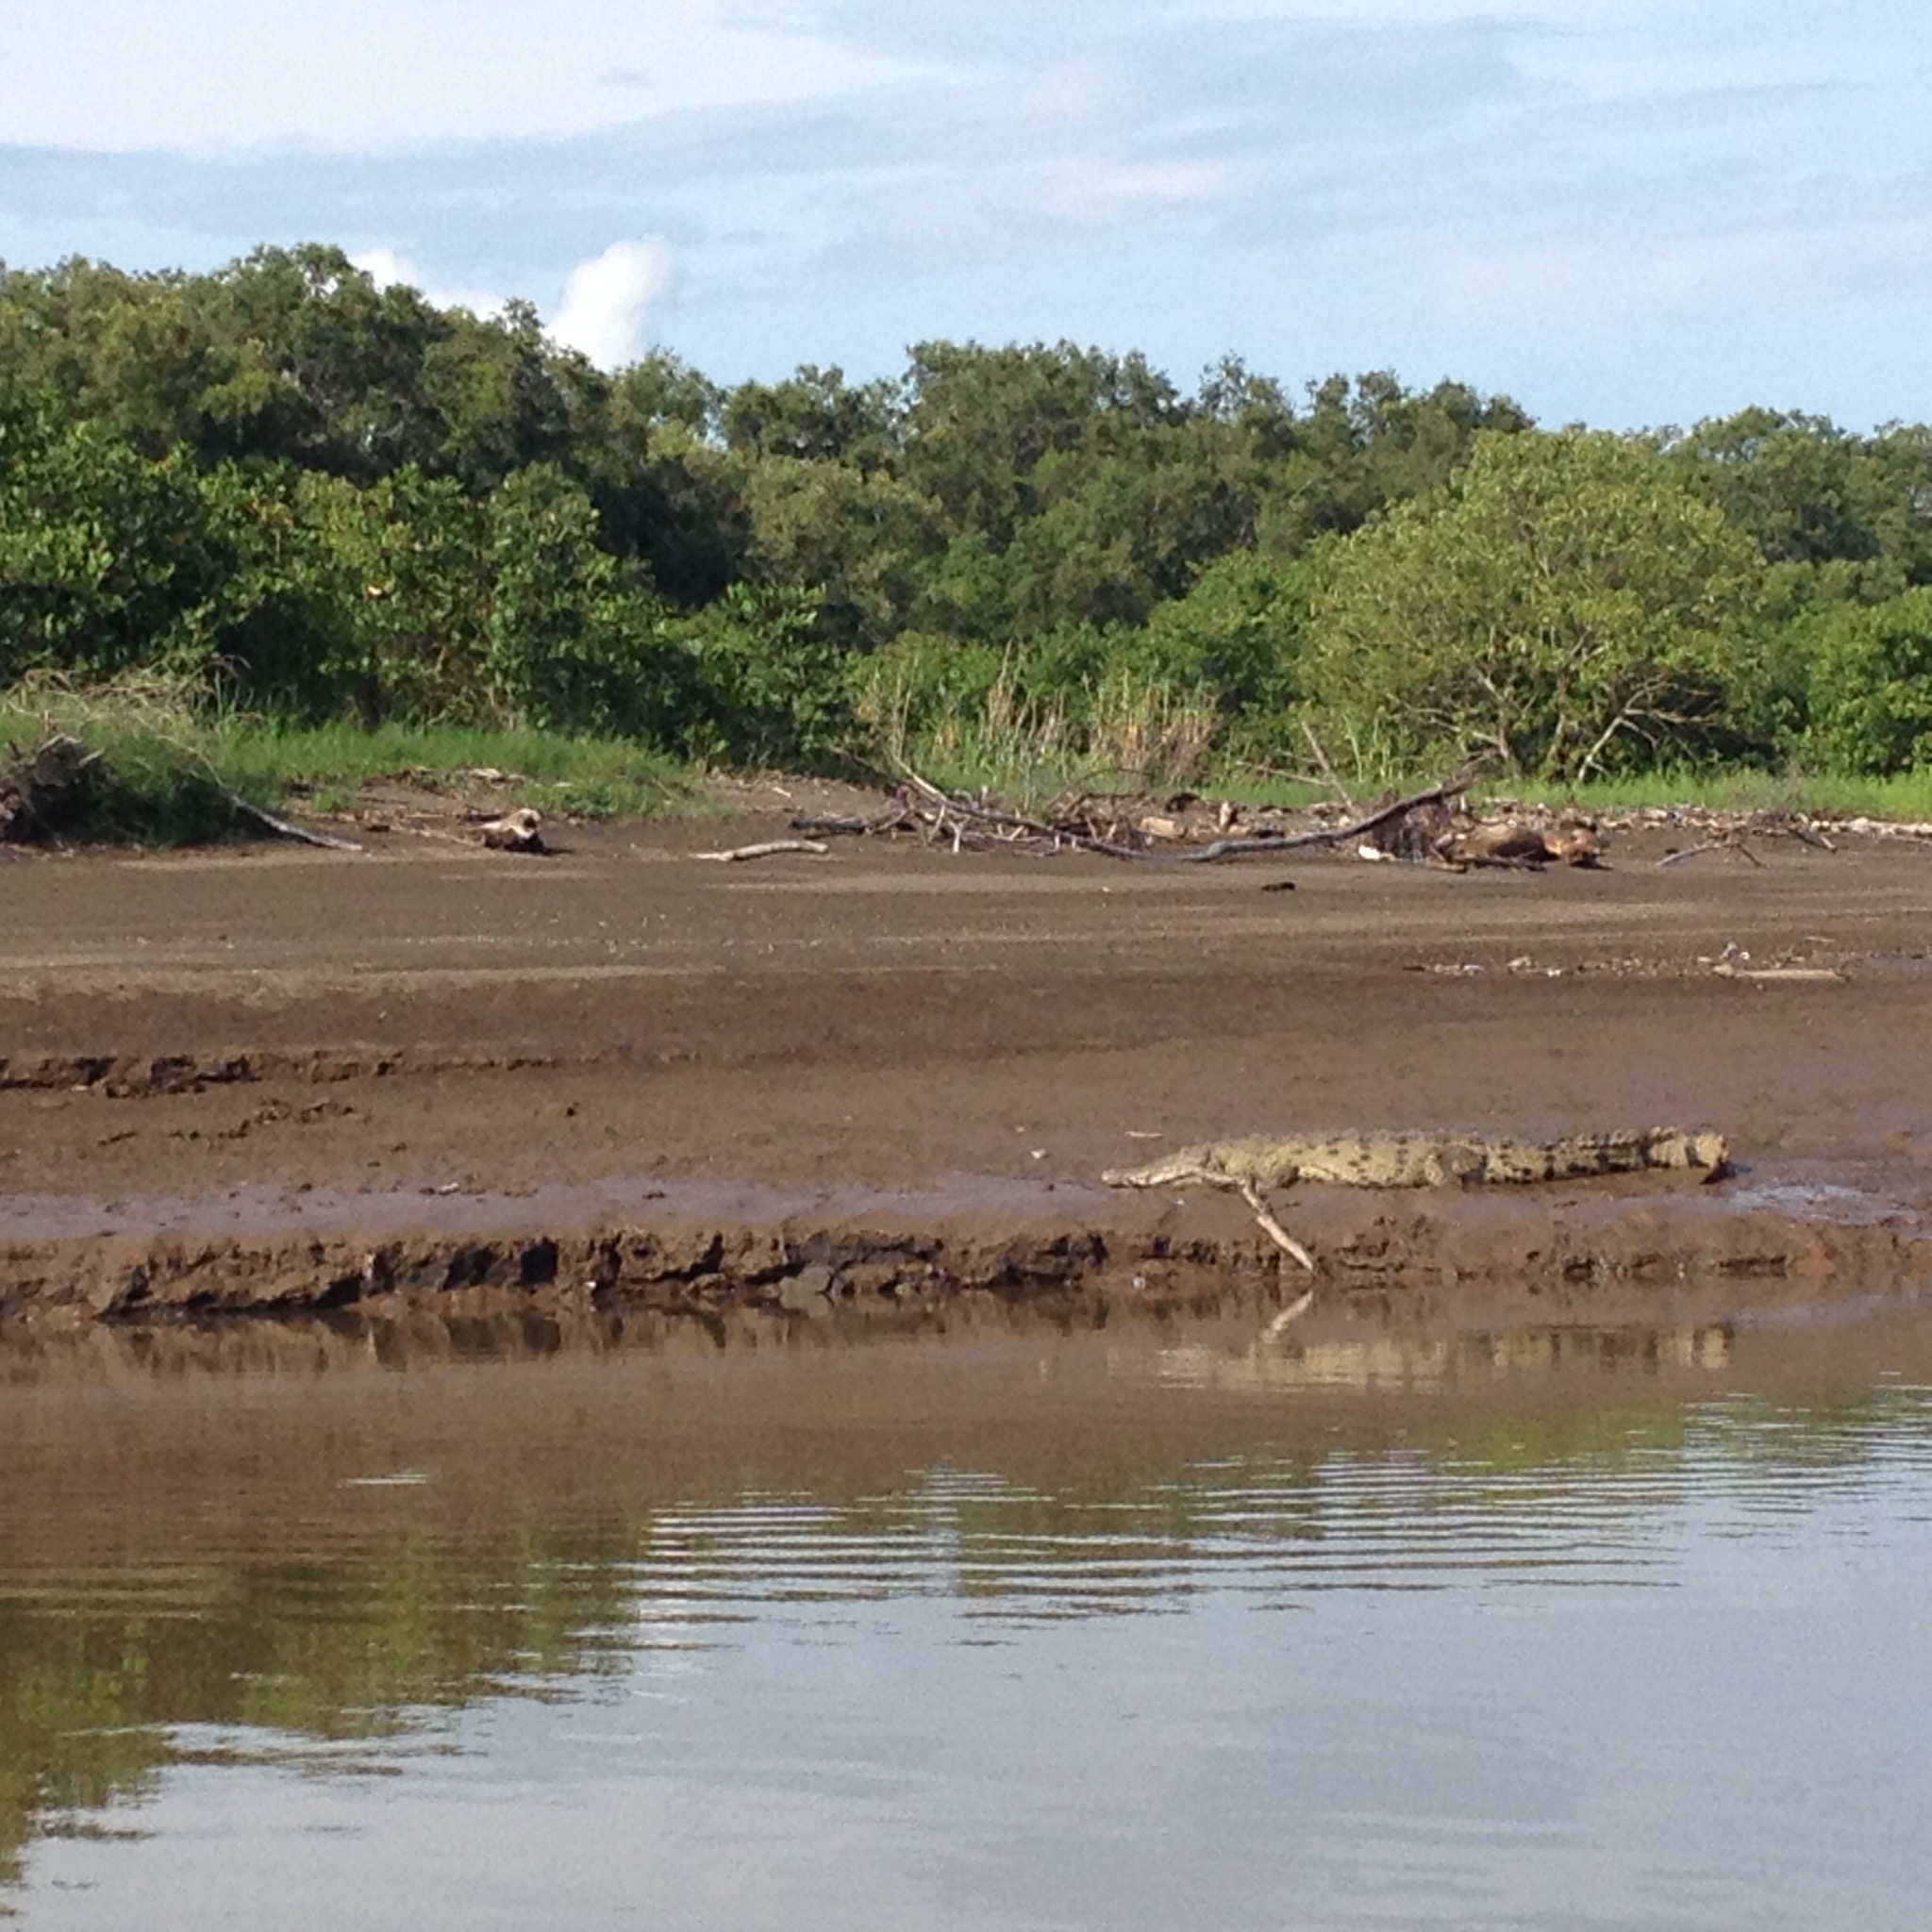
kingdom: Animalia
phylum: Chordata
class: Crocodylia
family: Crocodylidae
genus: Crocodylus
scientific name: Crocodylus acutus
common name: American crocodile
